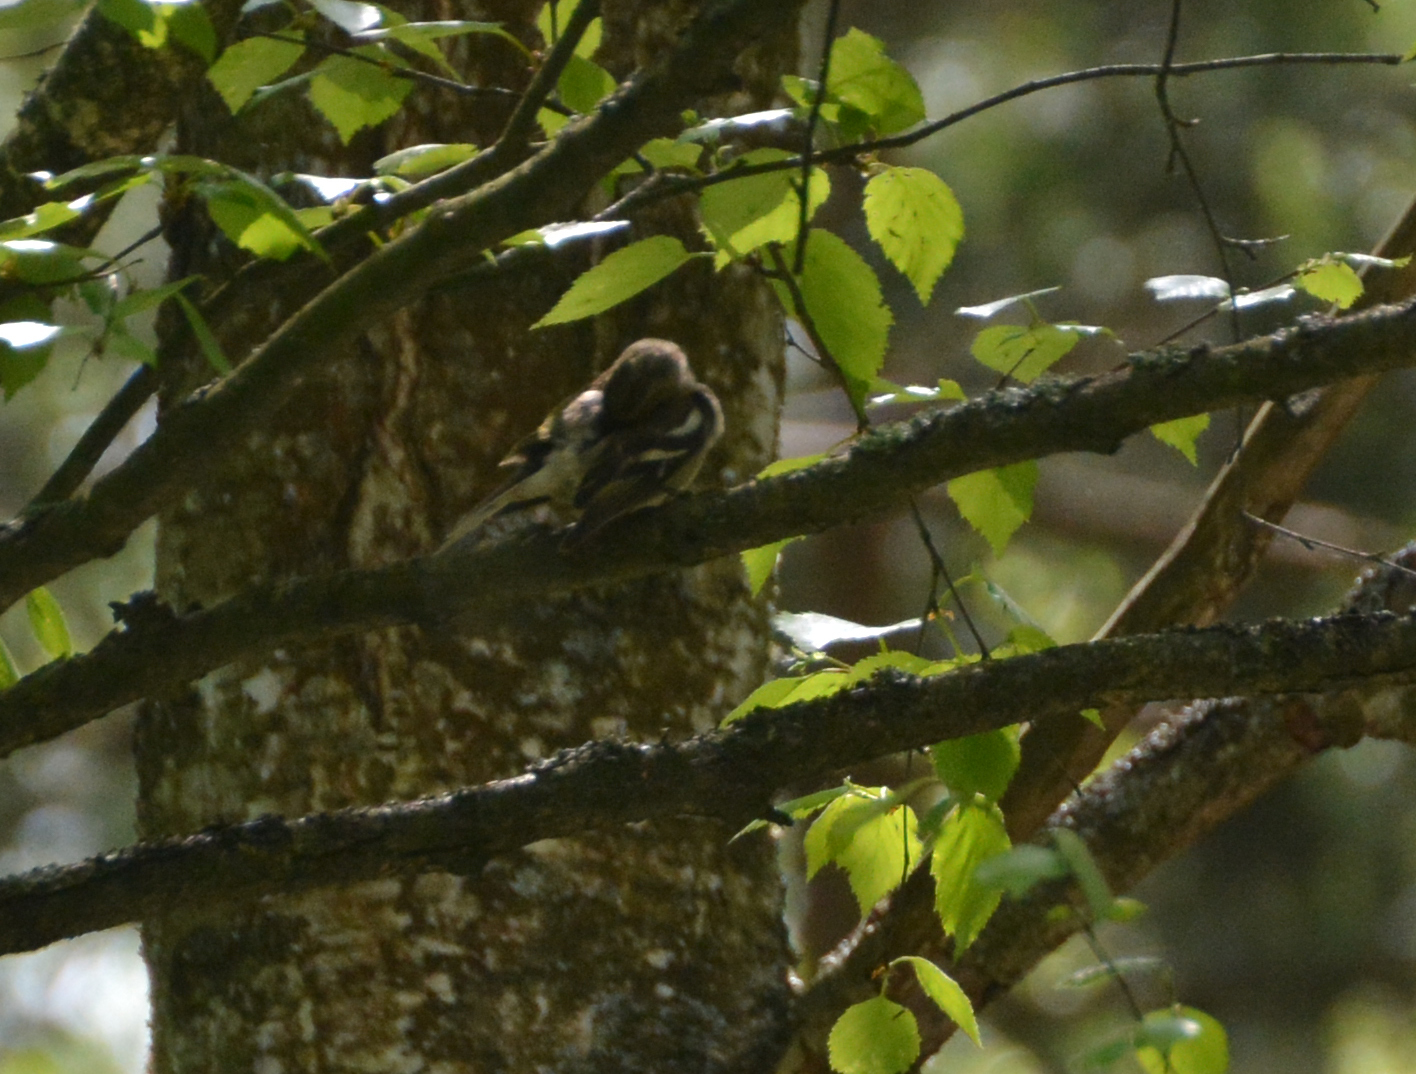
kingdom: Animalia
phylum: Chordata
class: Aves
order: Passeriformes
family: Fringillidae
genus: Fringilla
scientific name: Fringilla coelebs
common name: Common chaffinch
